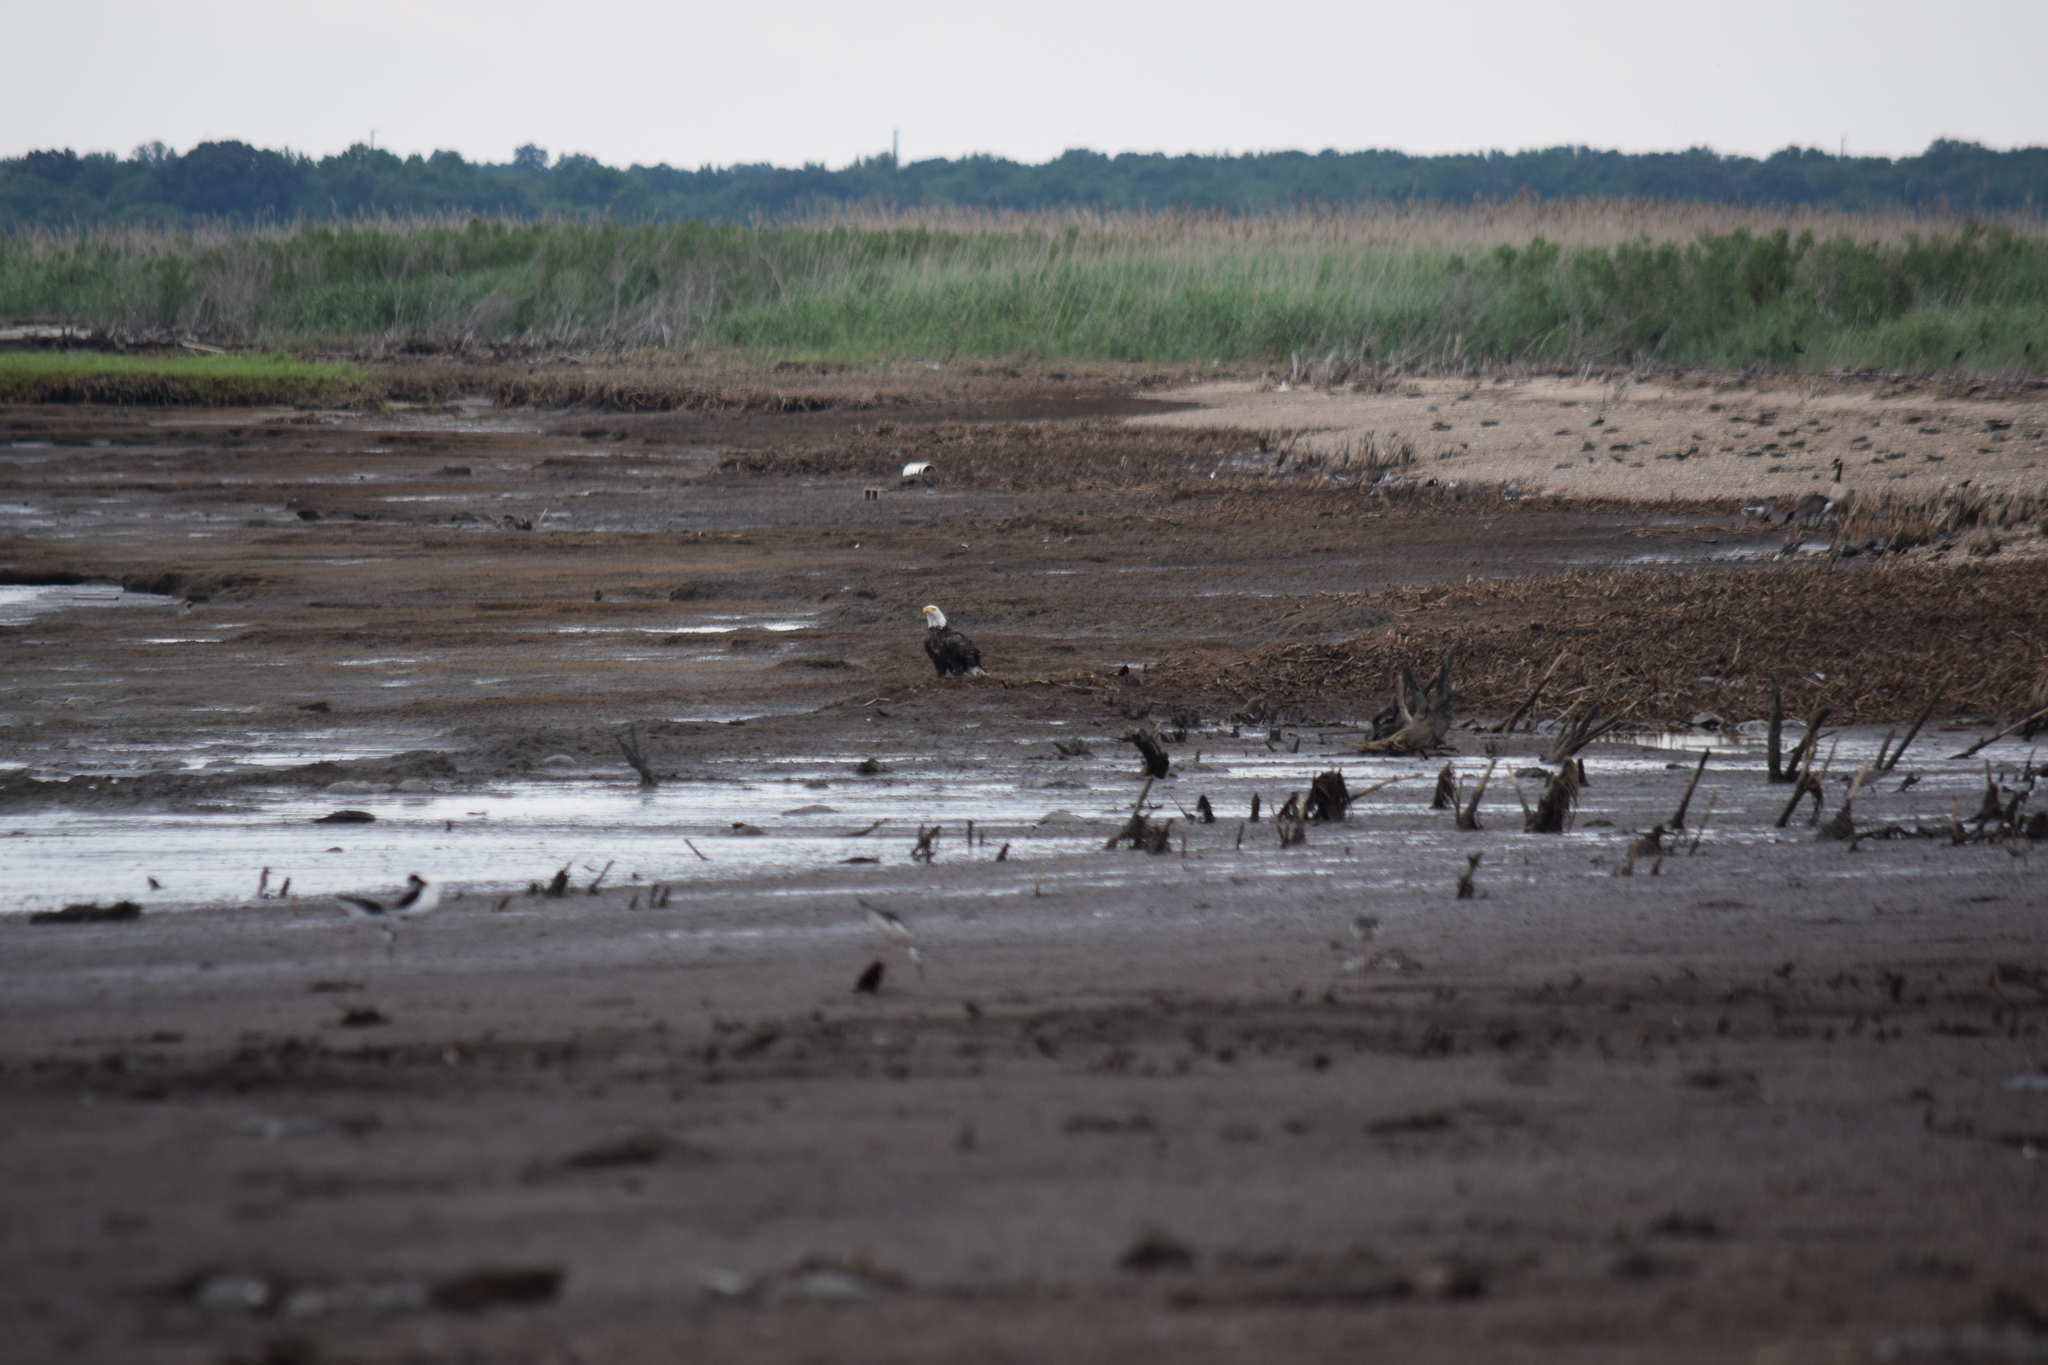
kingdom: Animalia
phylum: Chordata
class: Aves
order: Accipitriformes
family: Accipitridae
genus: Haliaeetus
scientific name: Haliaeetus leucocephalus
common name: Bald eagle
